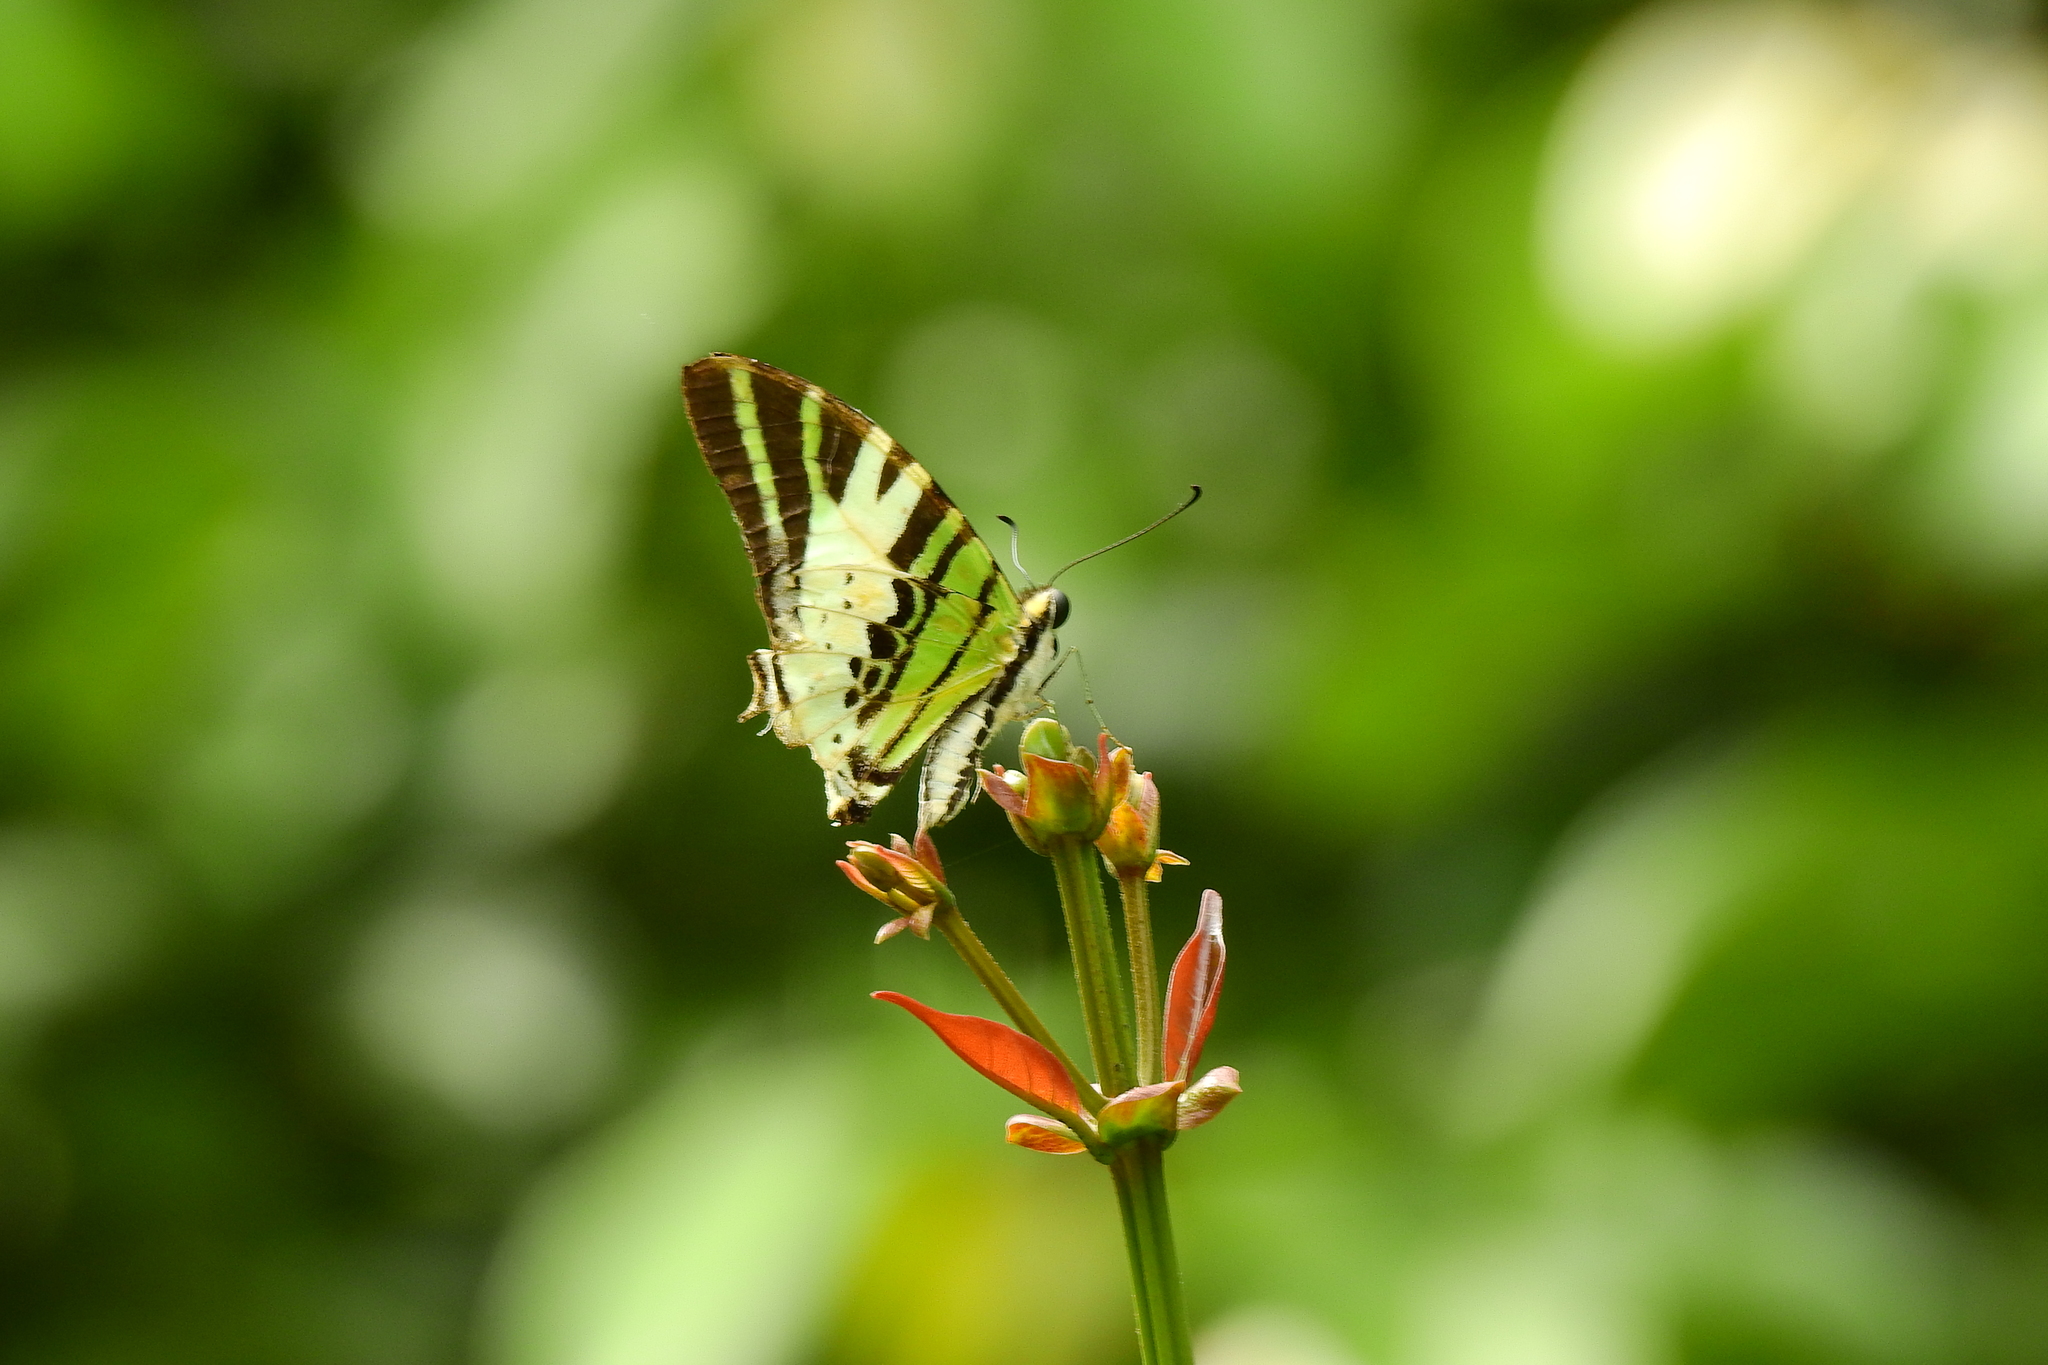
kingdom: Animalia
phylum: Arthropoda
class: Insecta
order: Lepidoptera
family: Papilionidae
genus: Graphium
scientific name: Graphium antiphates
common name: Fivebar swordtail
